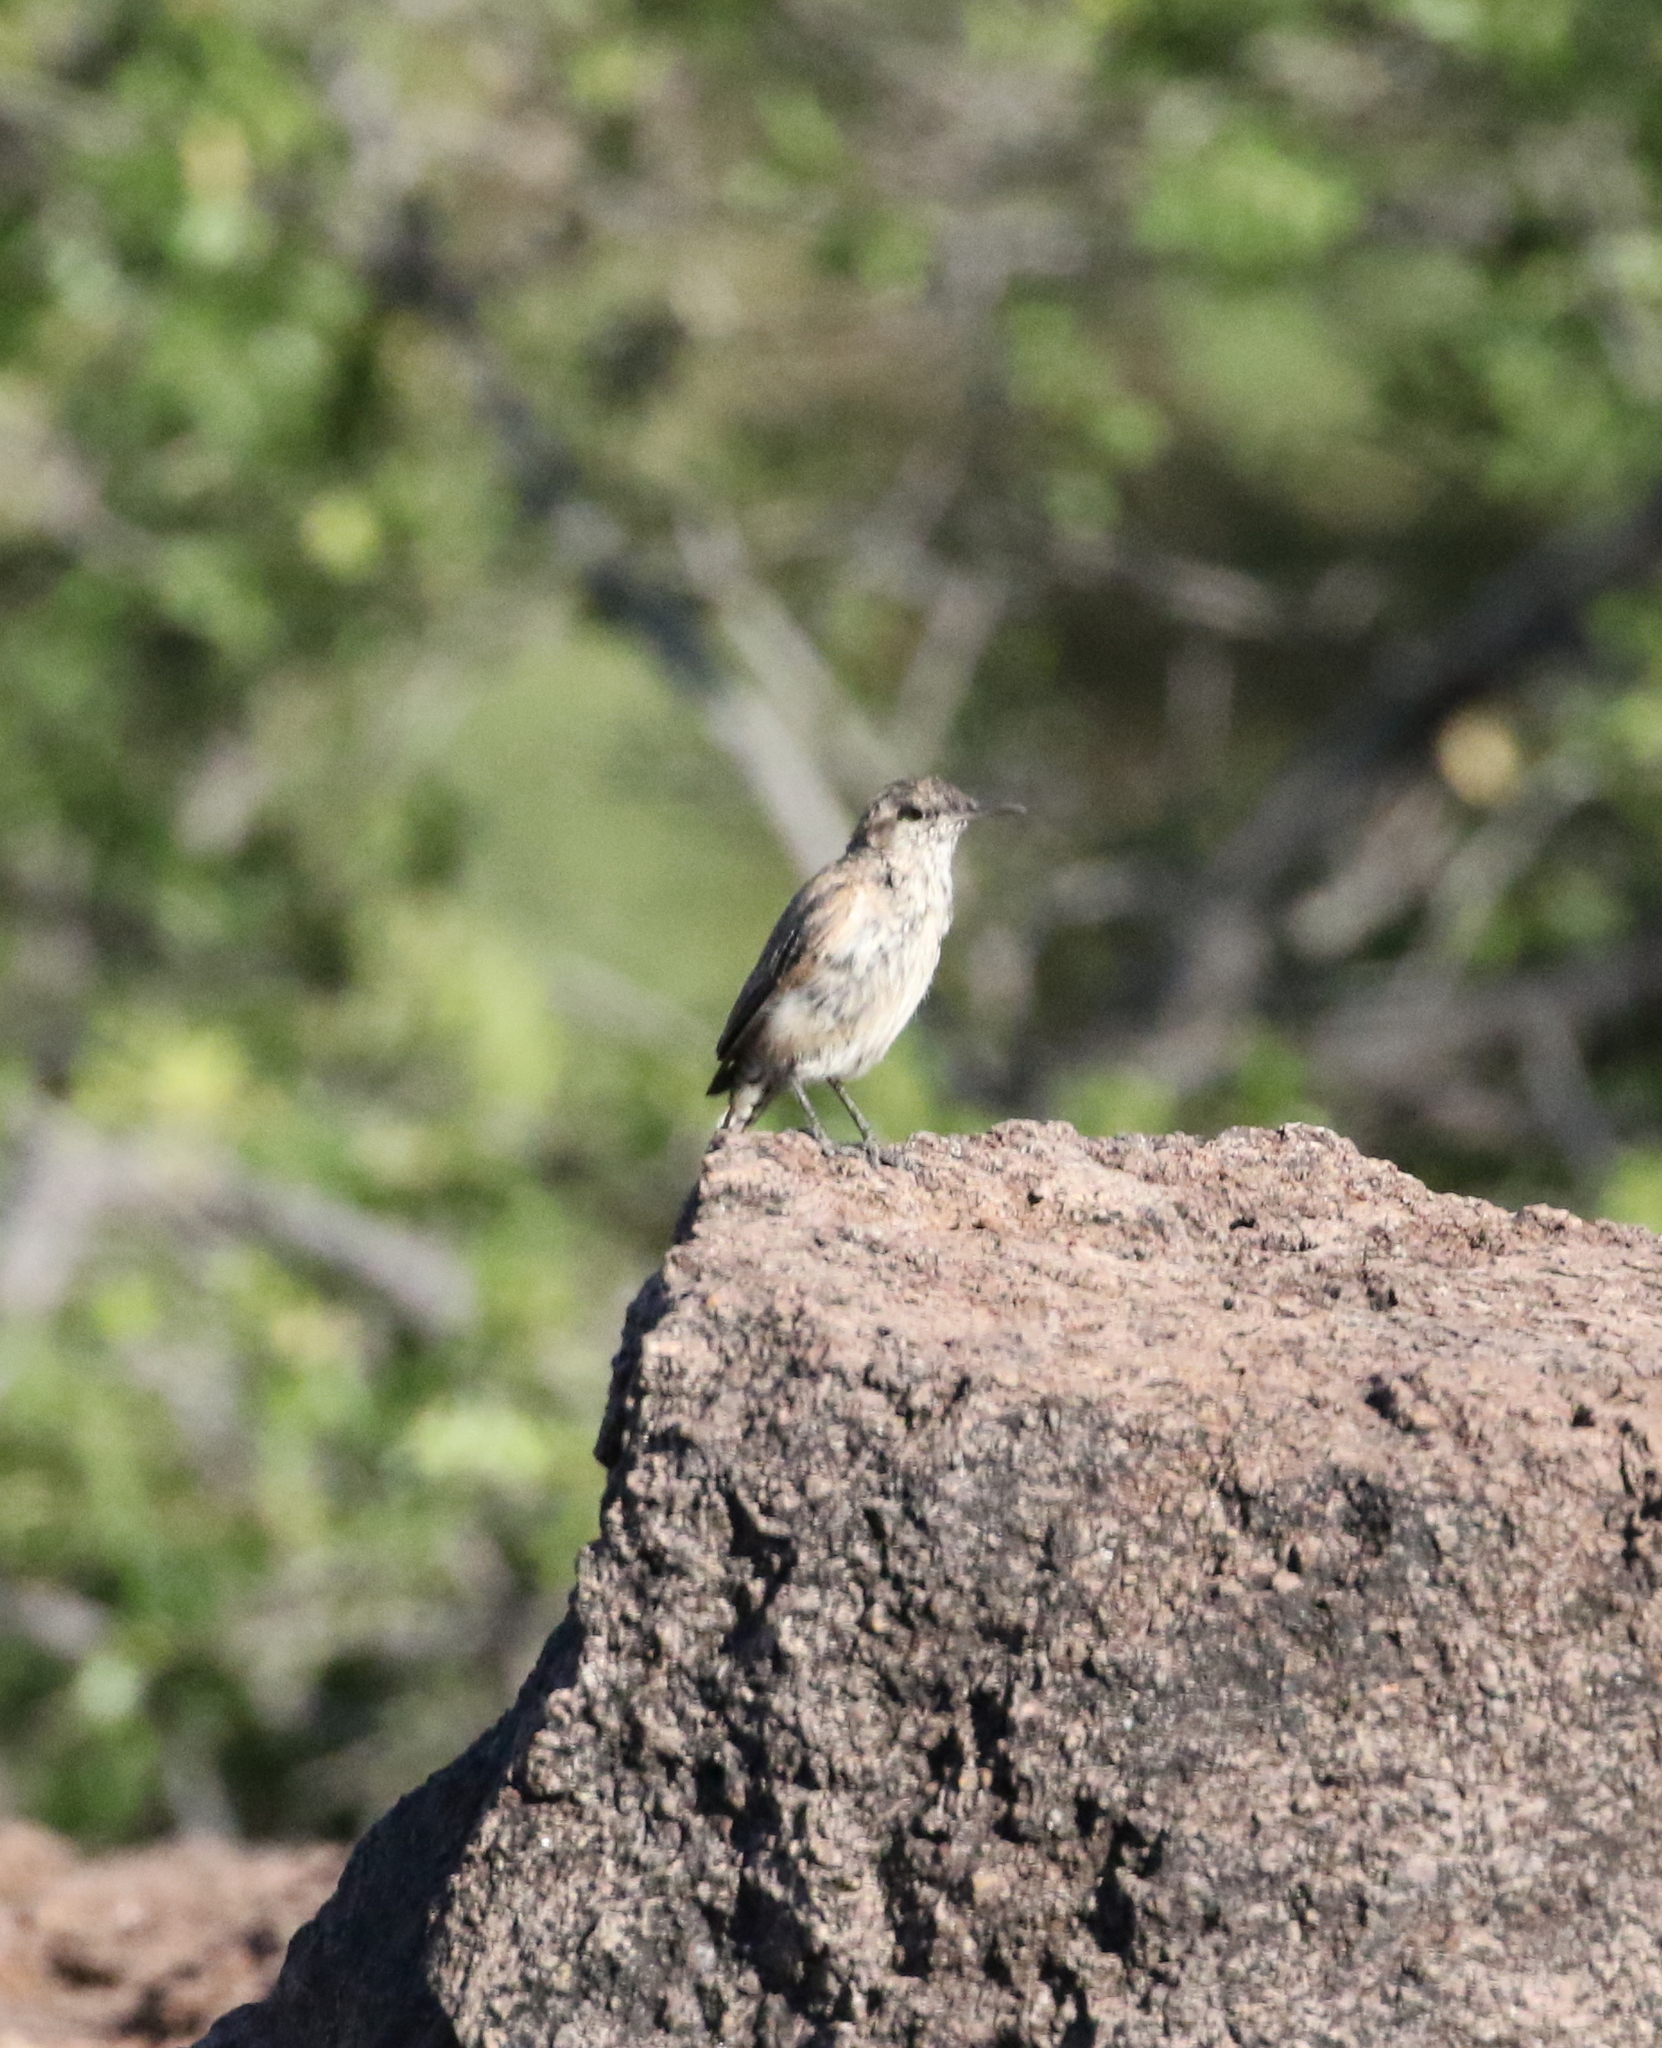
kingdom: Animalia
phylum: Chordata
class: Aves
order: Passeriformes
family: Troglodytidae
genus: Salpinctes
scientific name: Salpinctes obsoletus
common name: Rock wren
